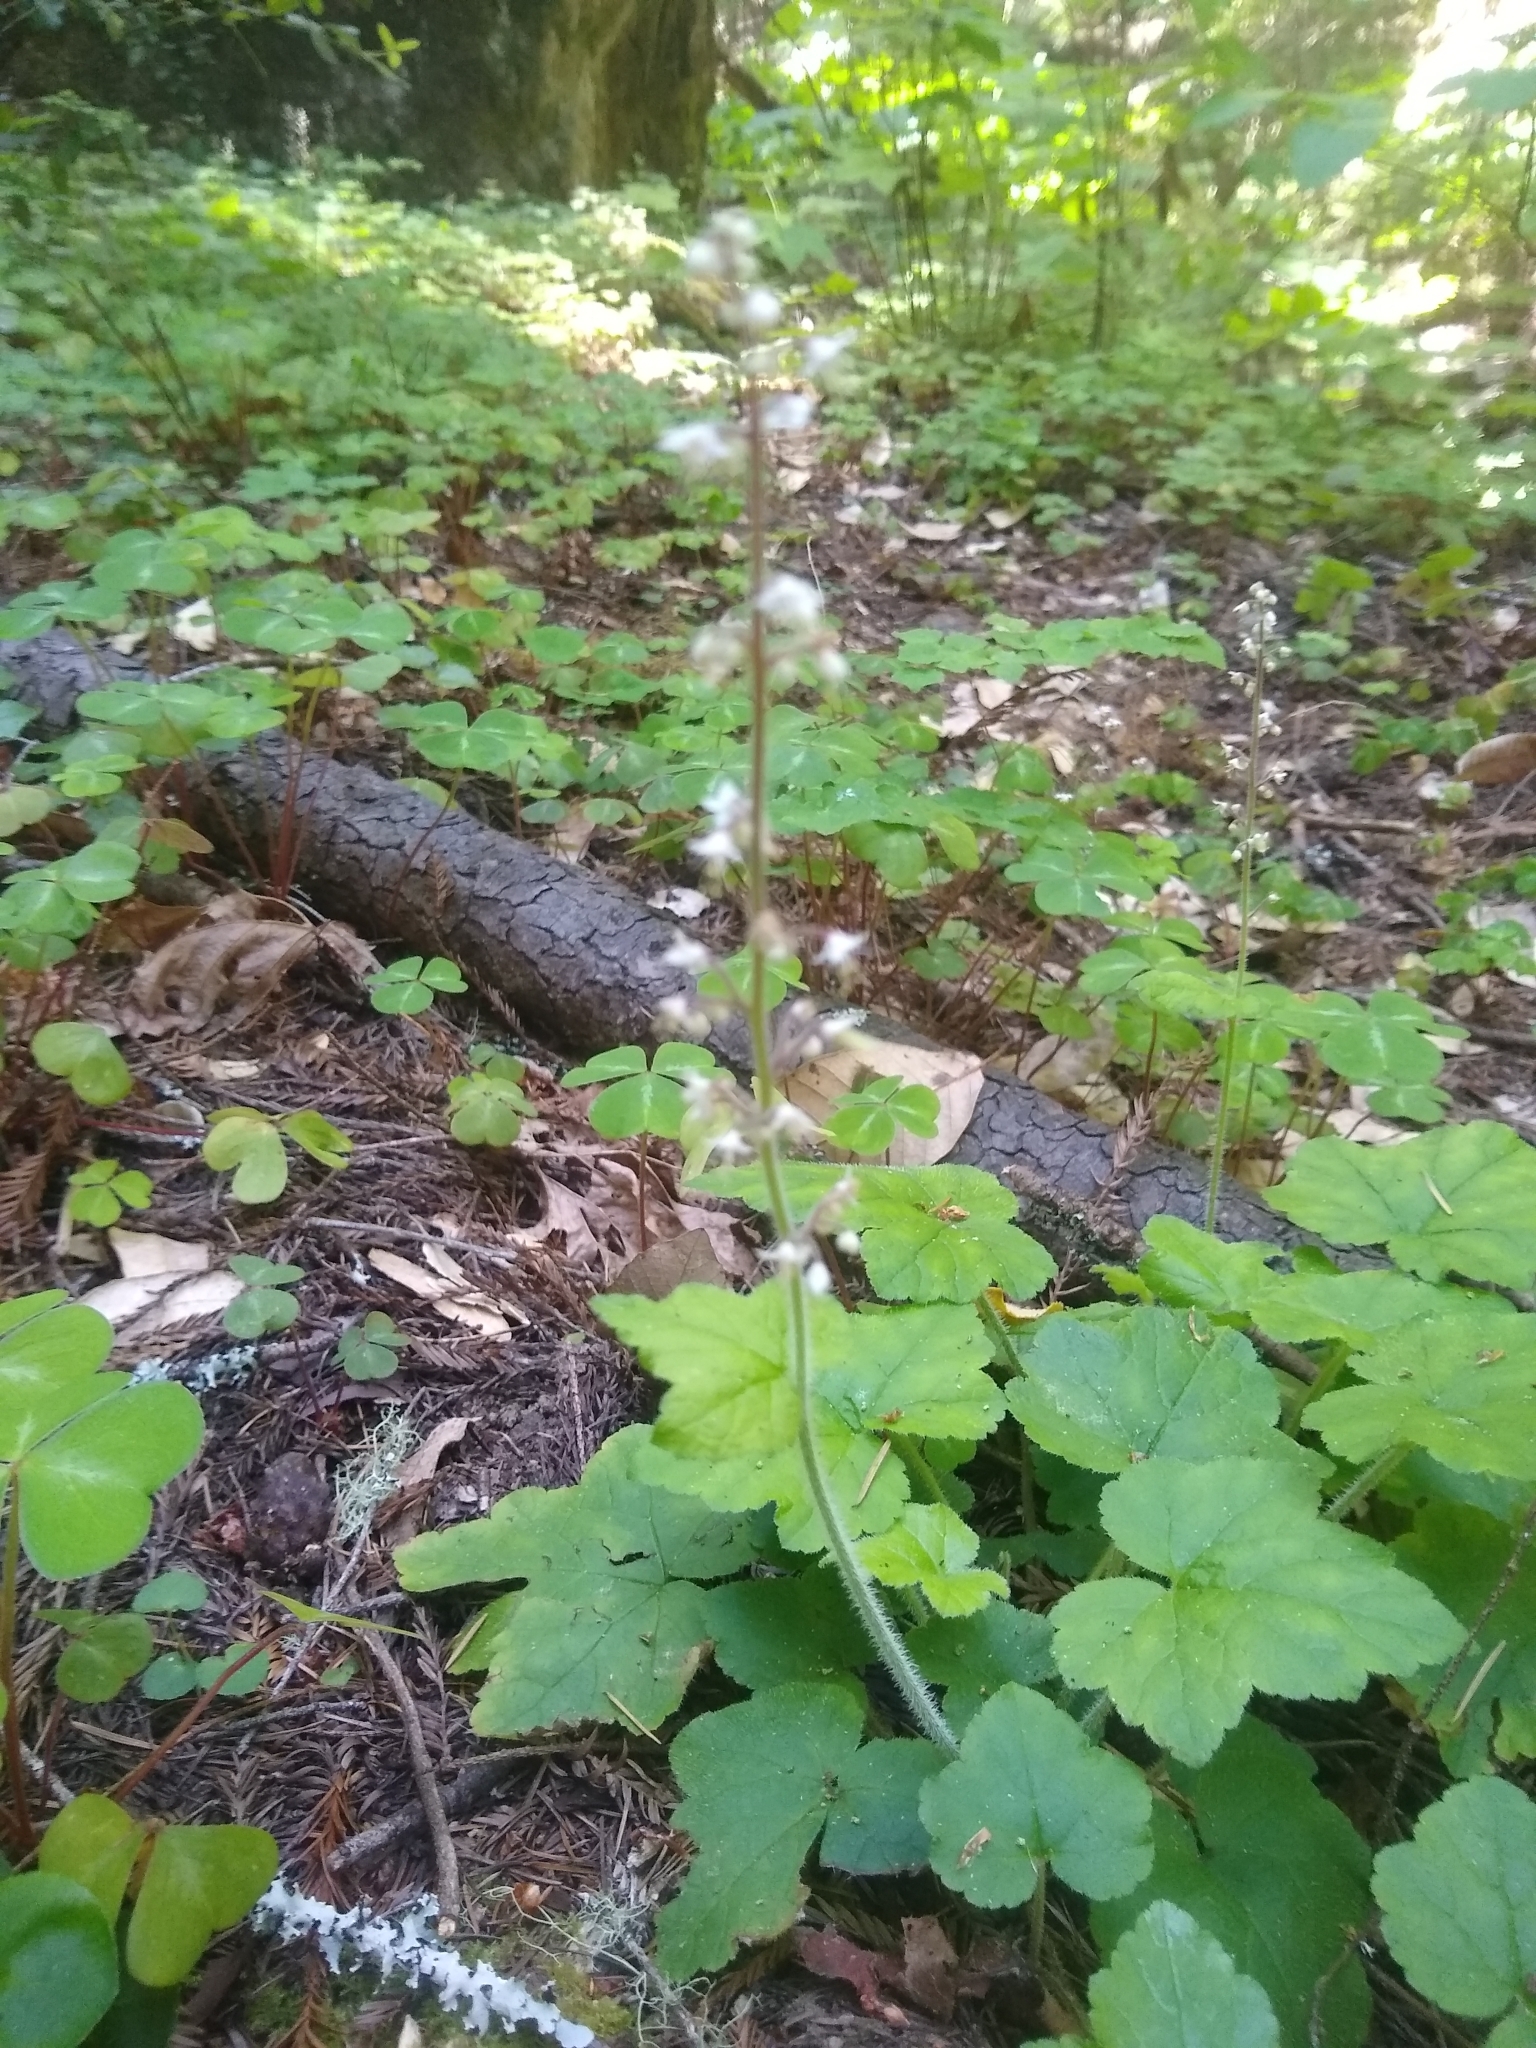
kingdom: Plantae
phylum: Tracheophyta
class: Magnoliopsida
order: Saxifragales
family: Saxifragaceae
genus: Tiarella
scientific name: Tiarella trifoliata
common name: Sugar-scoop
